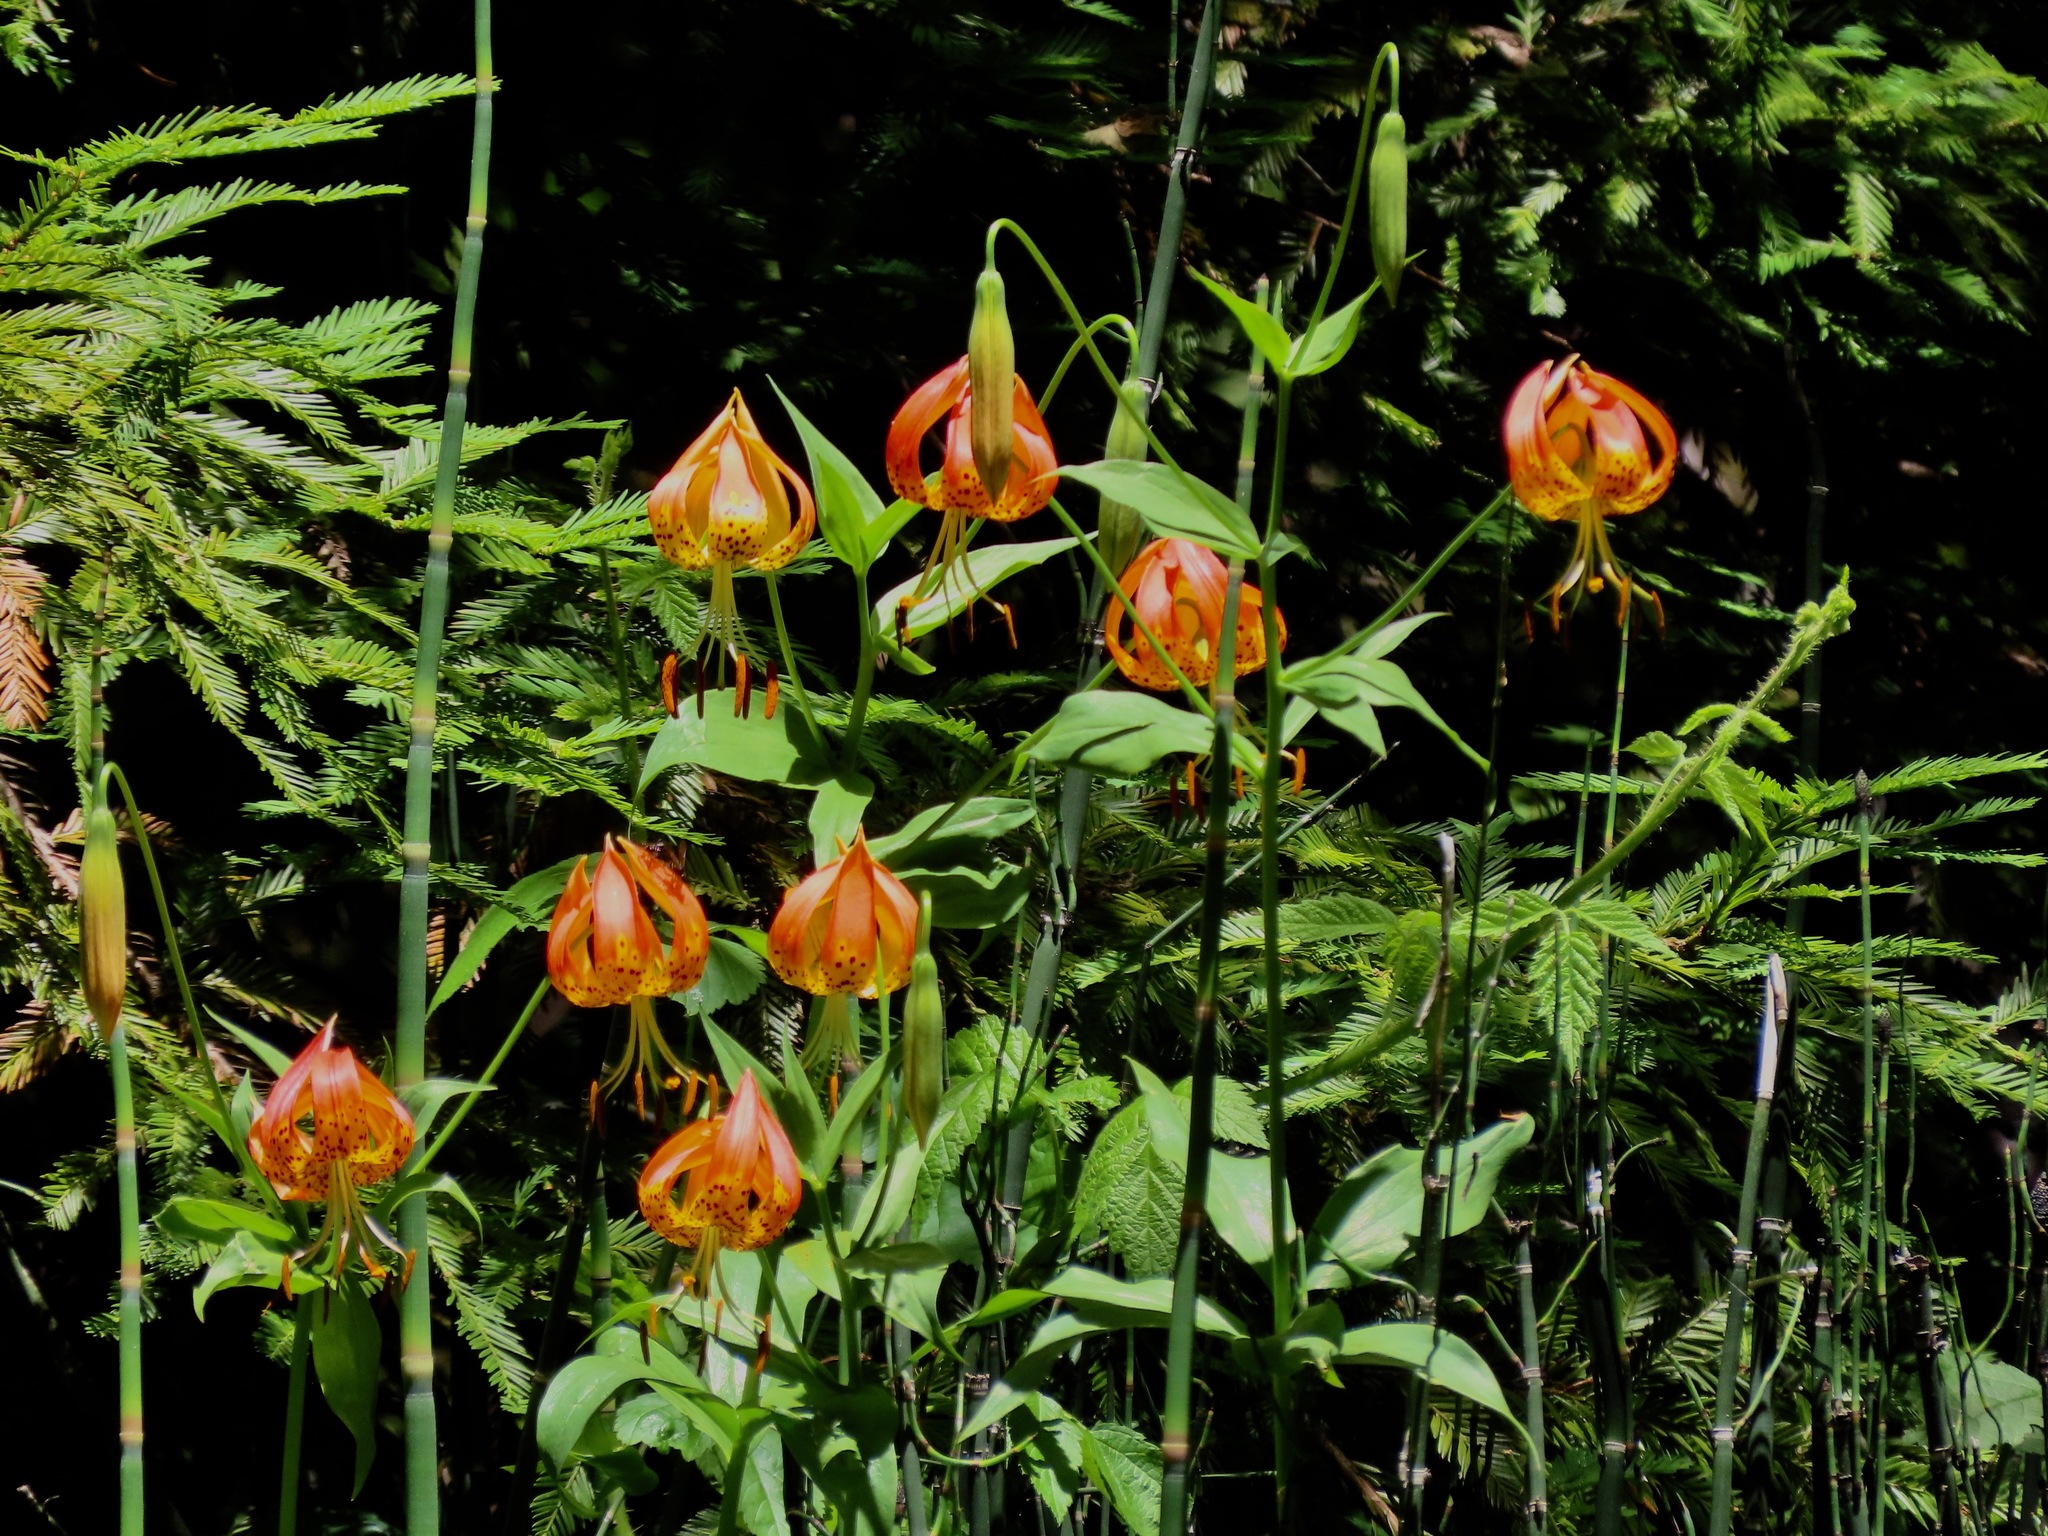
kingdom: Plantae
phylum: Tracheophyta
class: Liliopsida
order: Liliales
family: Liliaceae
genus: Lilium
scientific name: Lilium pardalinum
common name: Panther lily
